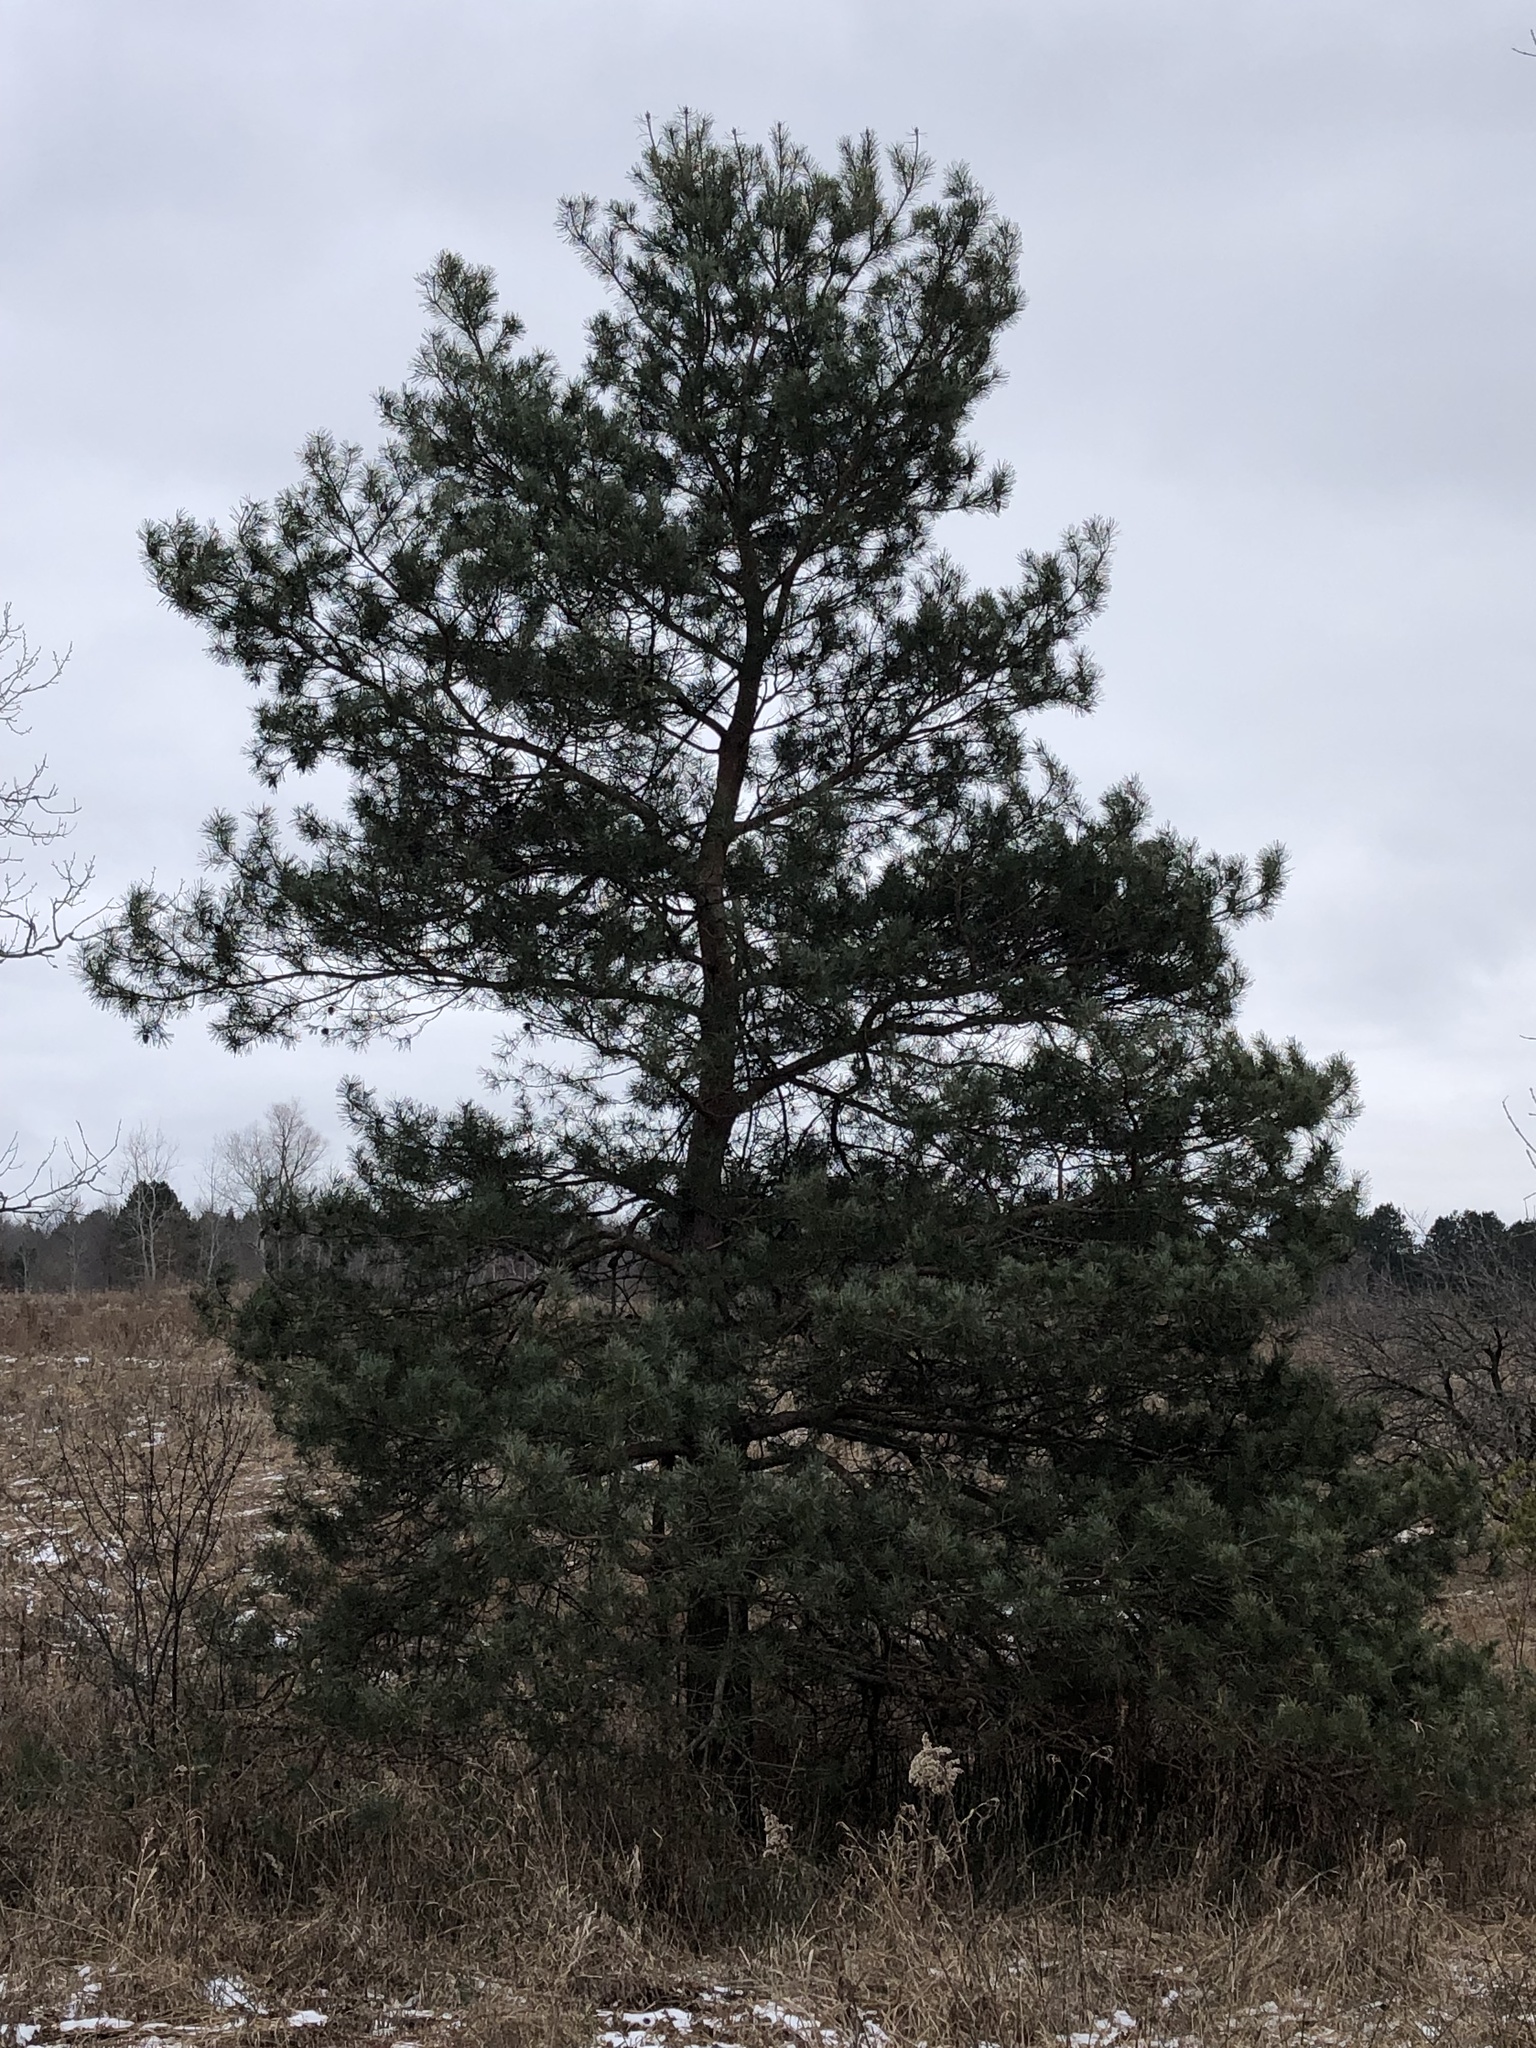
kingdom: Plantae
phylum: Tracheophyta
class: Pinopsida
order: Pinales
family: Pinaceae
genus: Pinus
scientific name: Pinus sylvestris
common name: Scots pine
